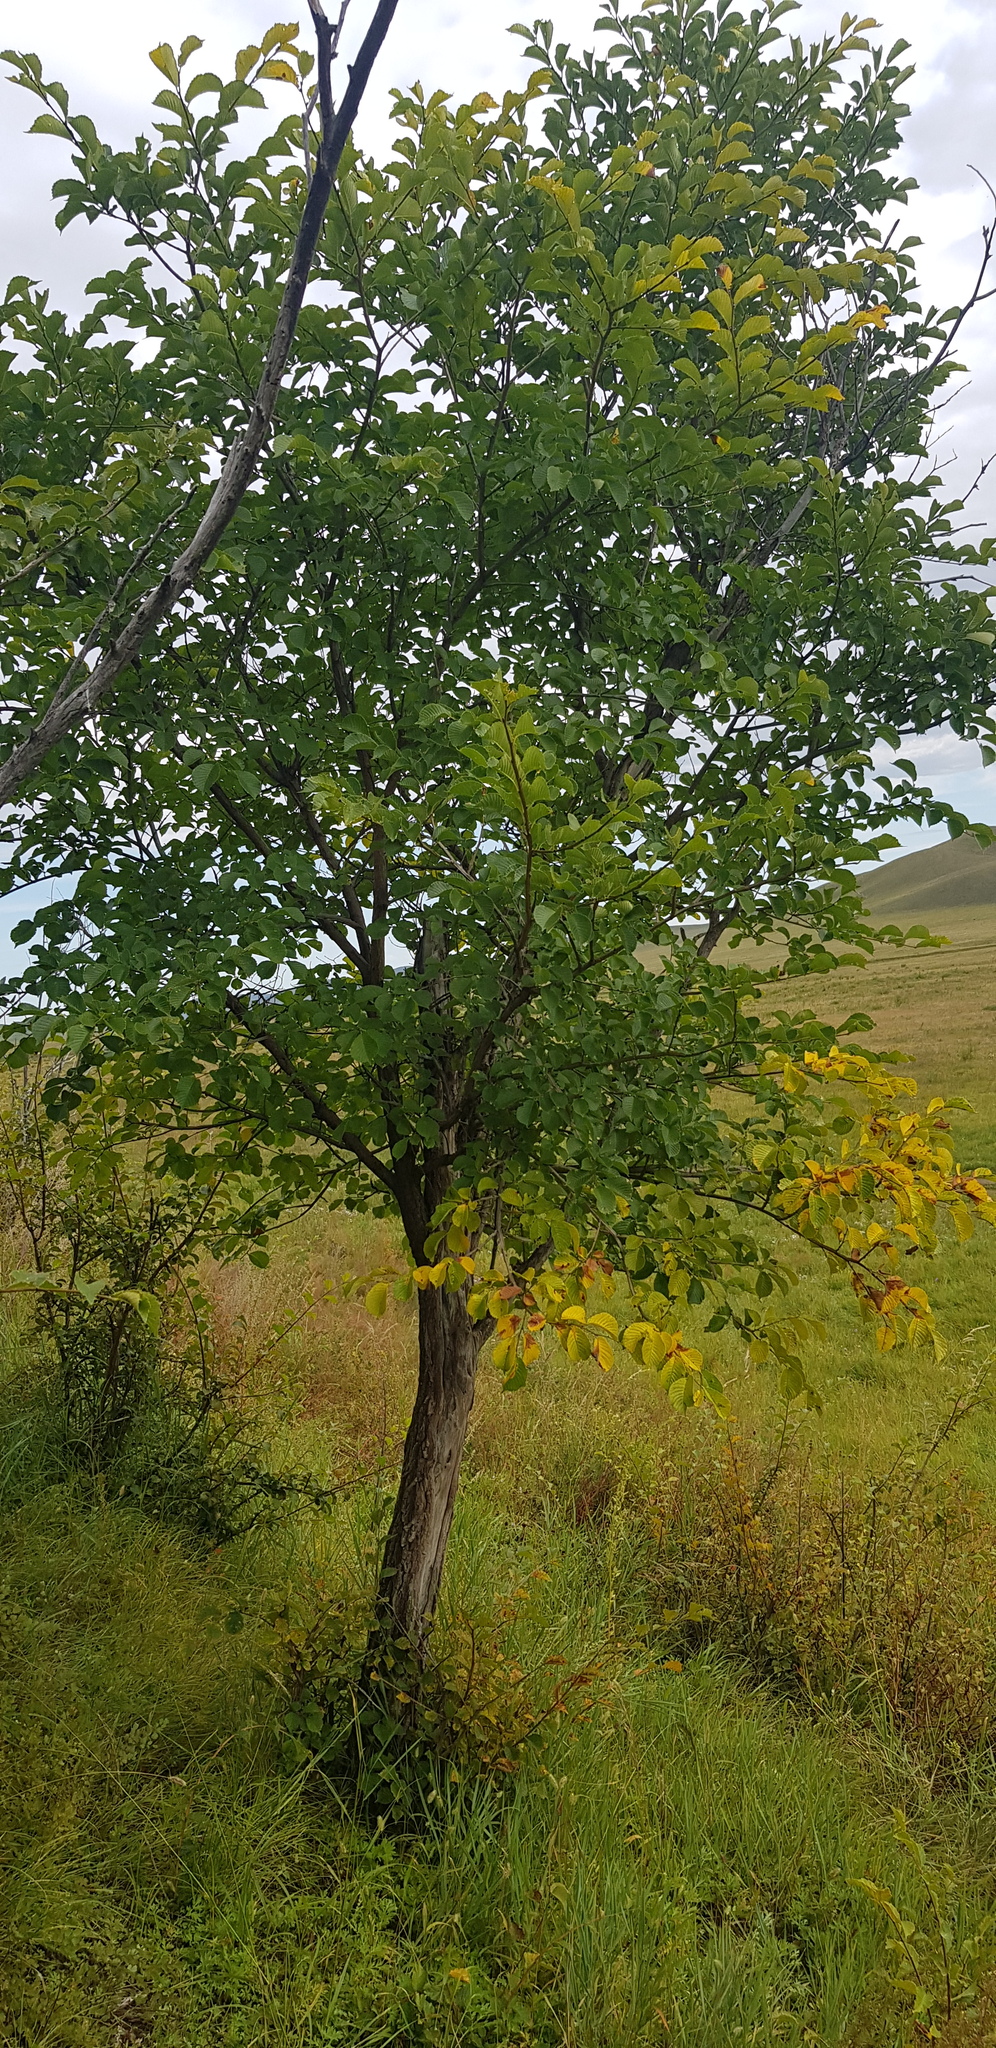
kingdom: Plantae
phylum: Tracheophyta
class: Magnoliopsida
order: Rosales
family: Ulmaceae
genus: Ulmus
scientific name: Ulmus davidiana
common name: Japanese elm
